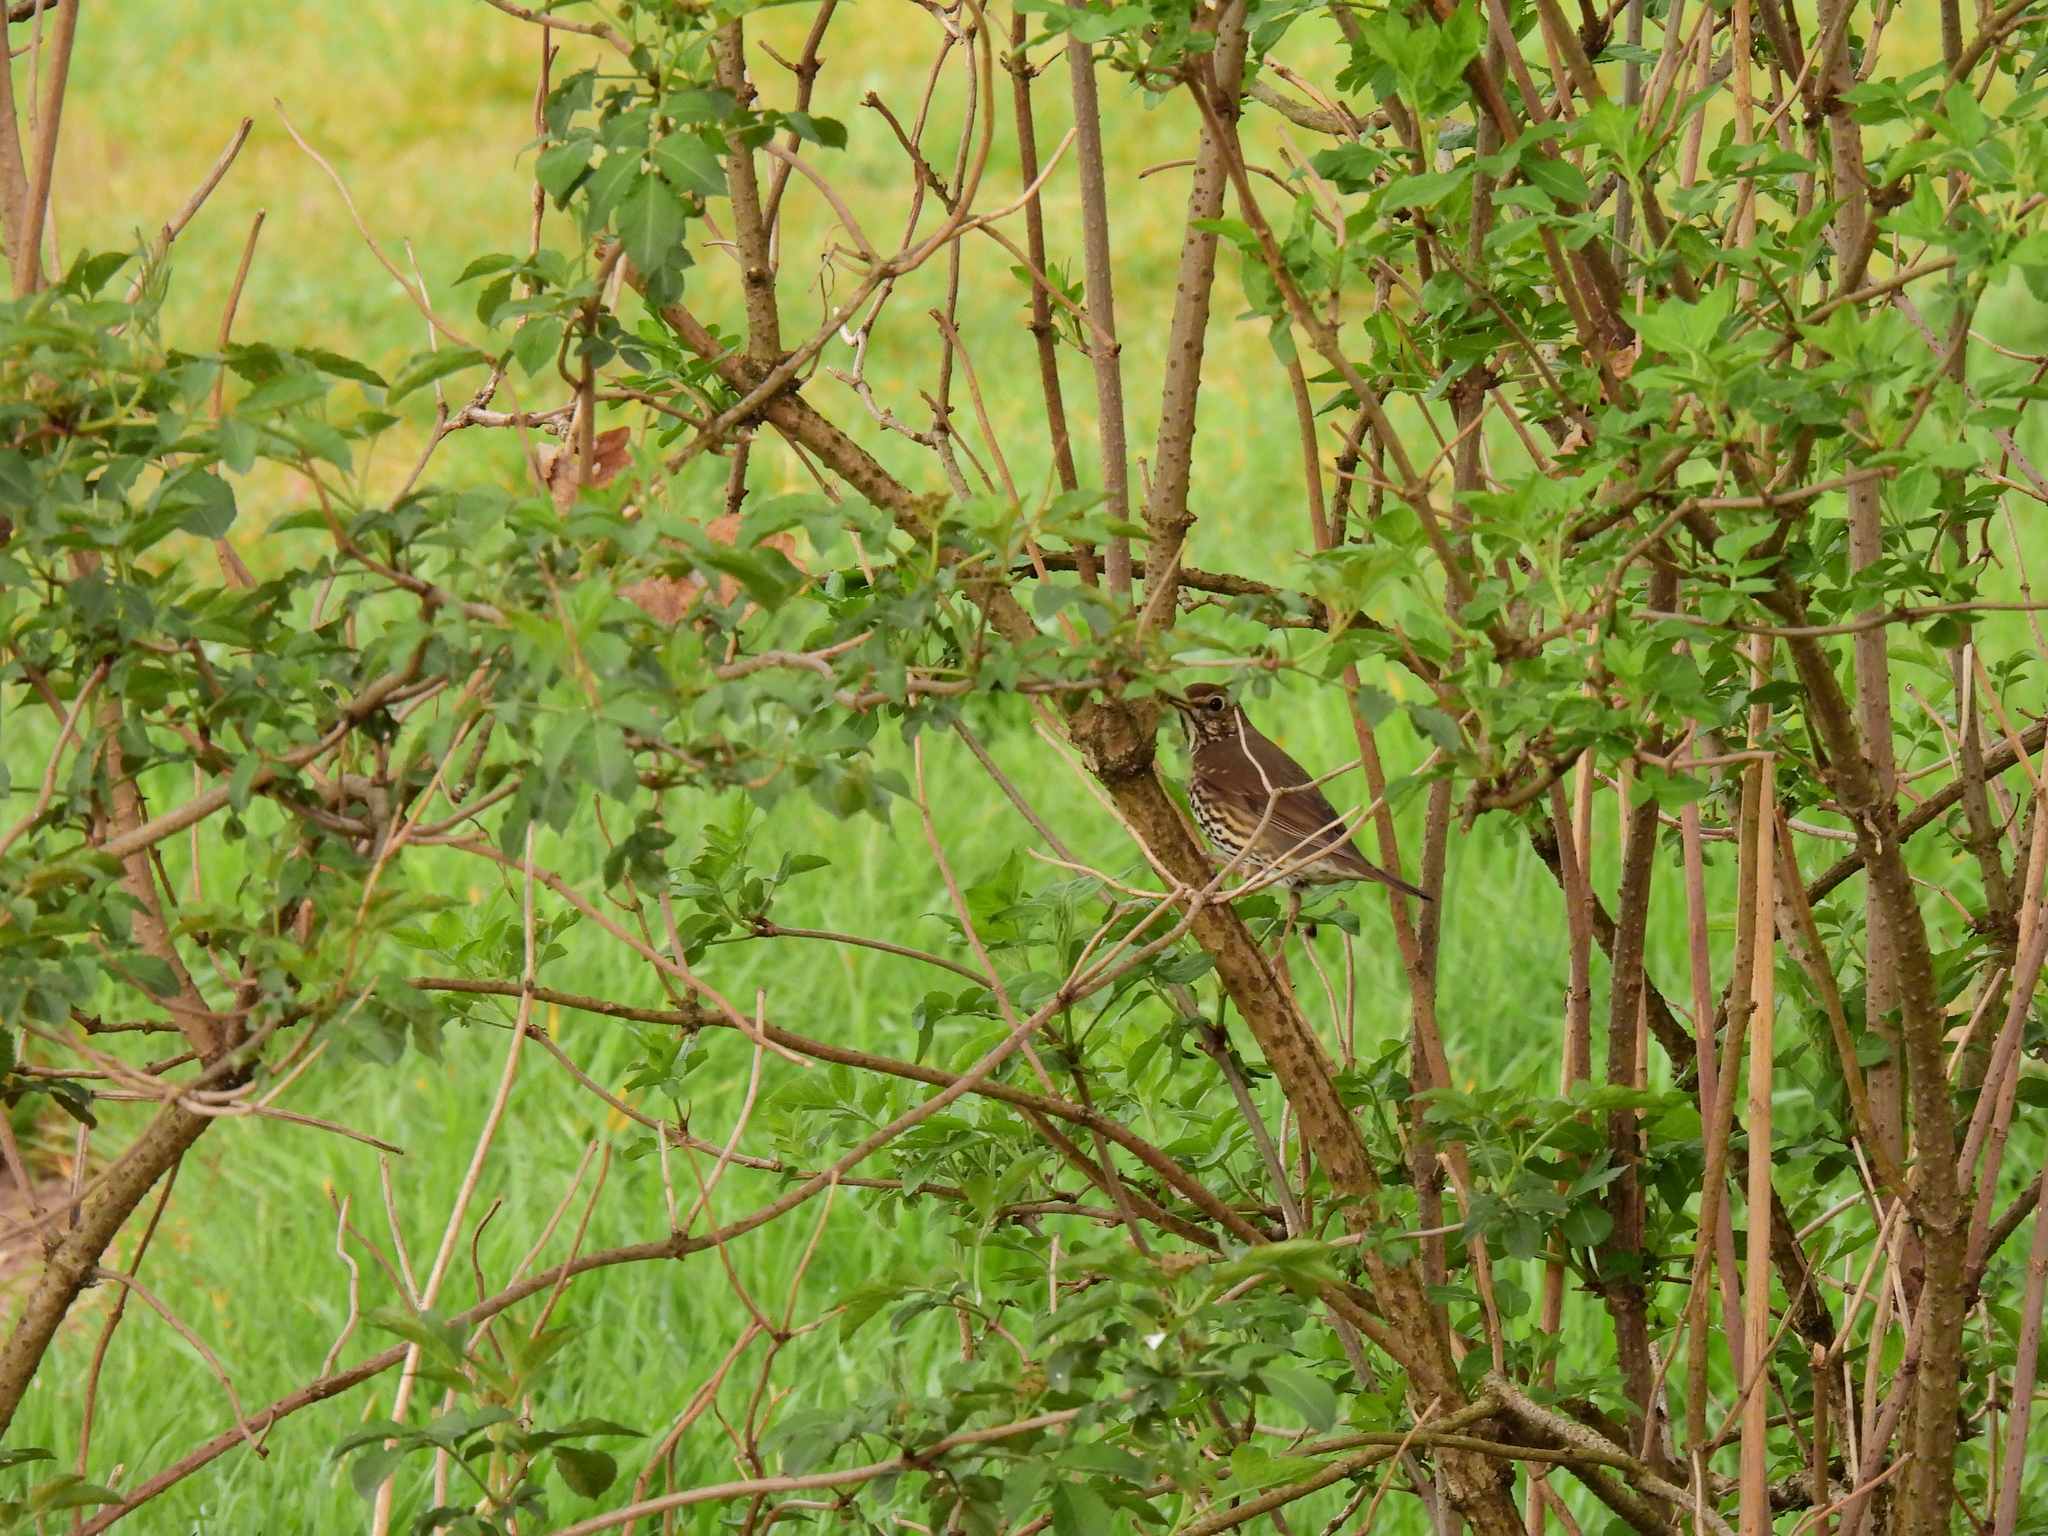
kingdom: Animalia
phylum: Chordata
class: Aves
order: Passeriformes
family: Turdidae
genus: Turdus
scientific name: Turdus philomelos
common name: Song thrush
